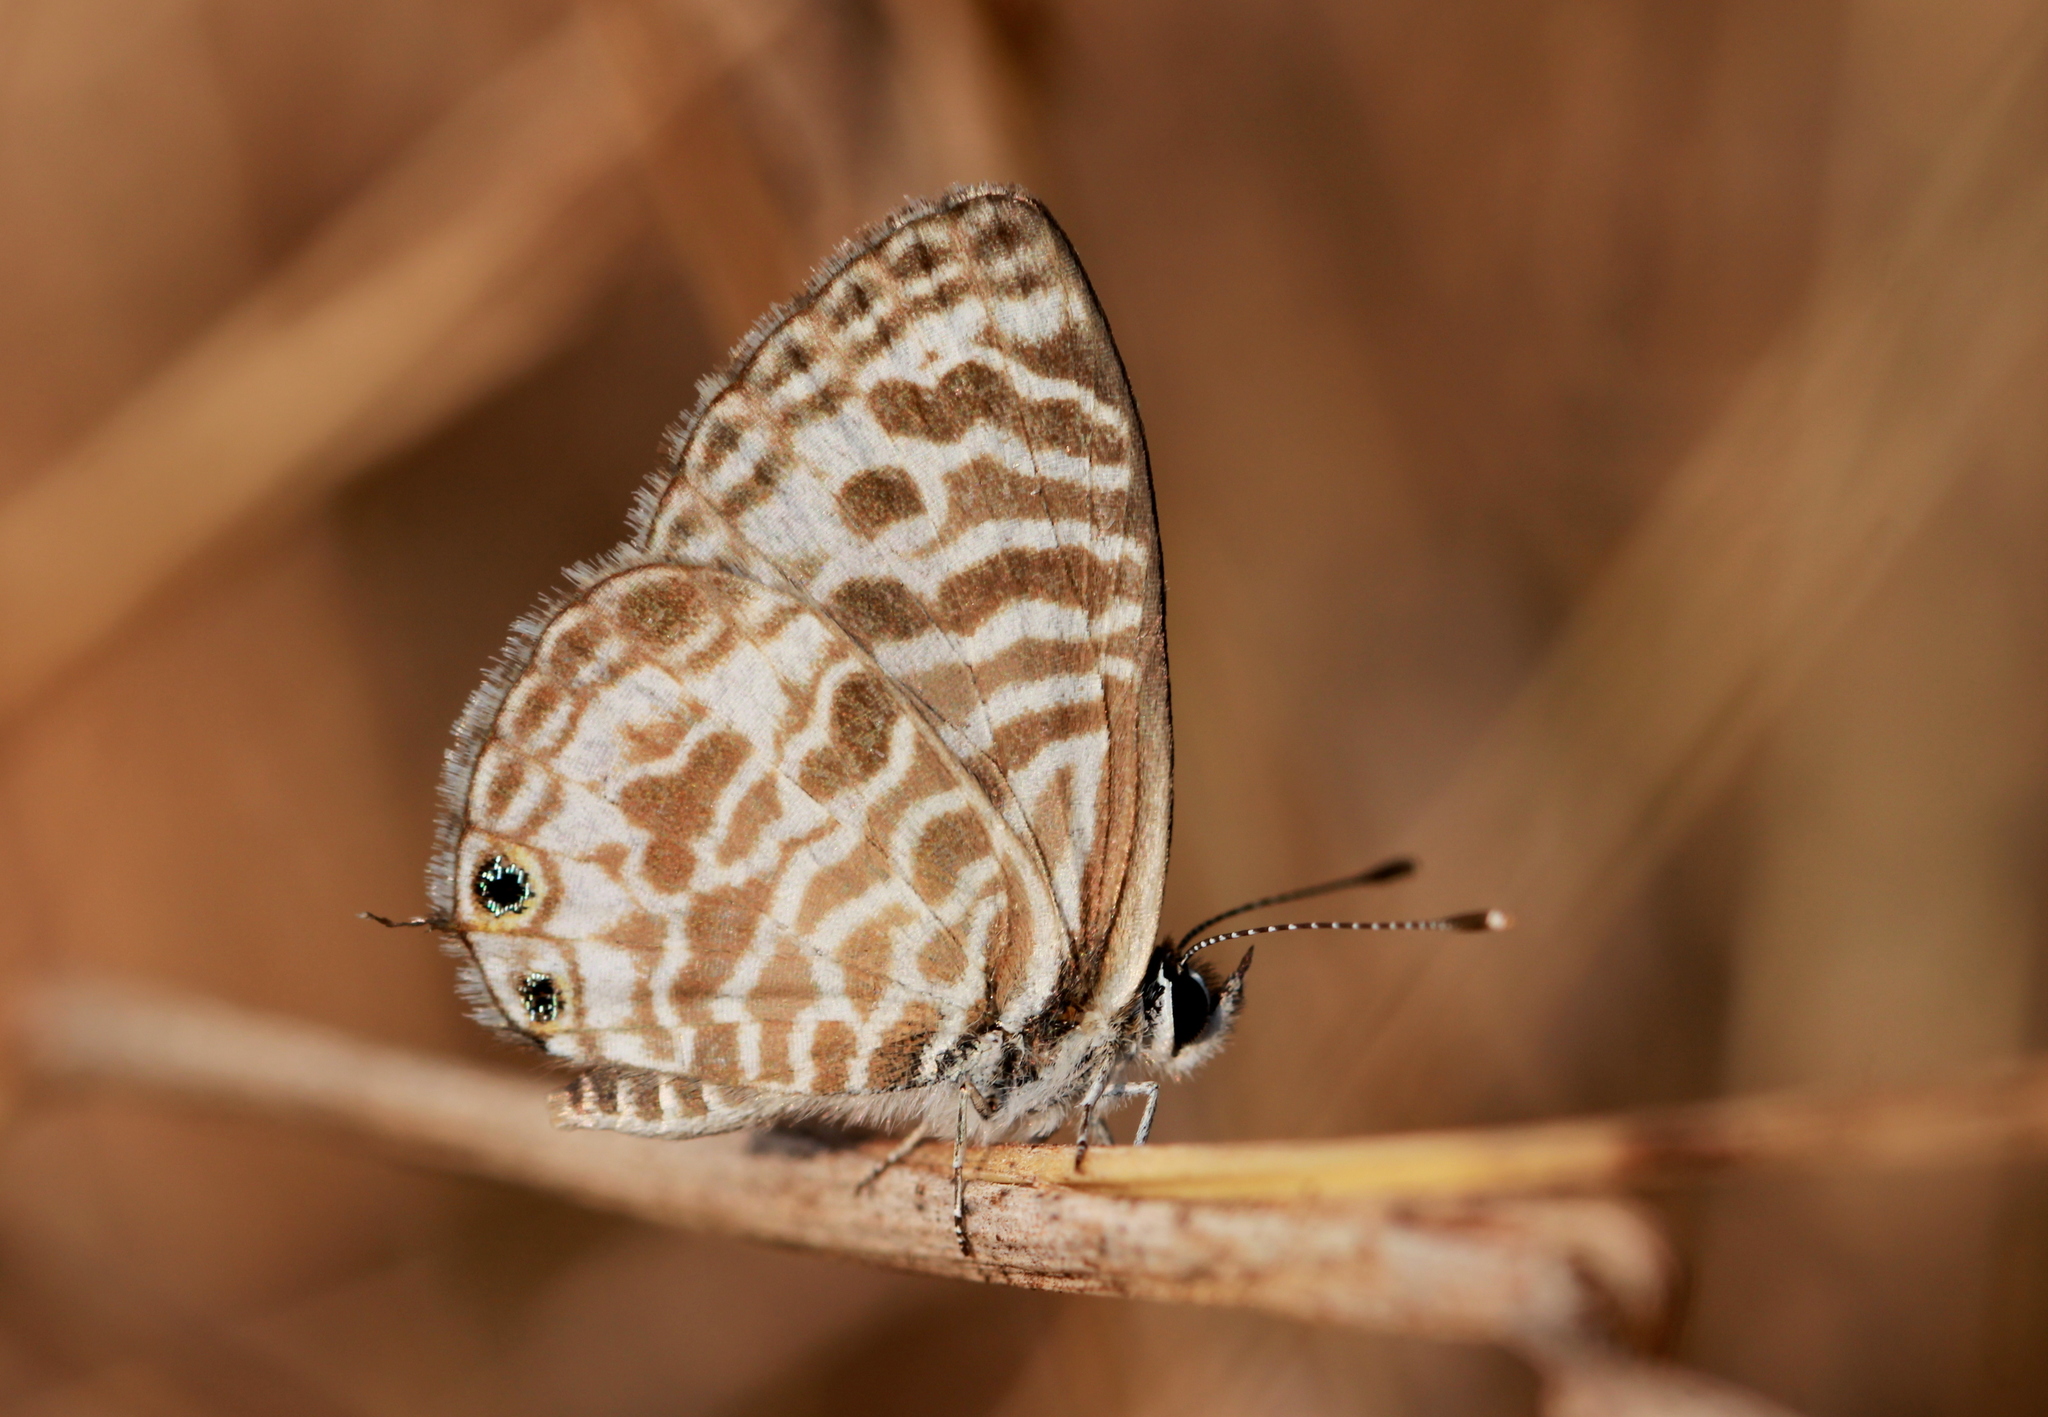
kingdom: Animalia
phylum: Arthropoda
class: Insecta
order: Lepidoptera
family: Lycaenidae
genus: Leptotes
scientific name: Leptotes plinius
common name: Zebra blue
